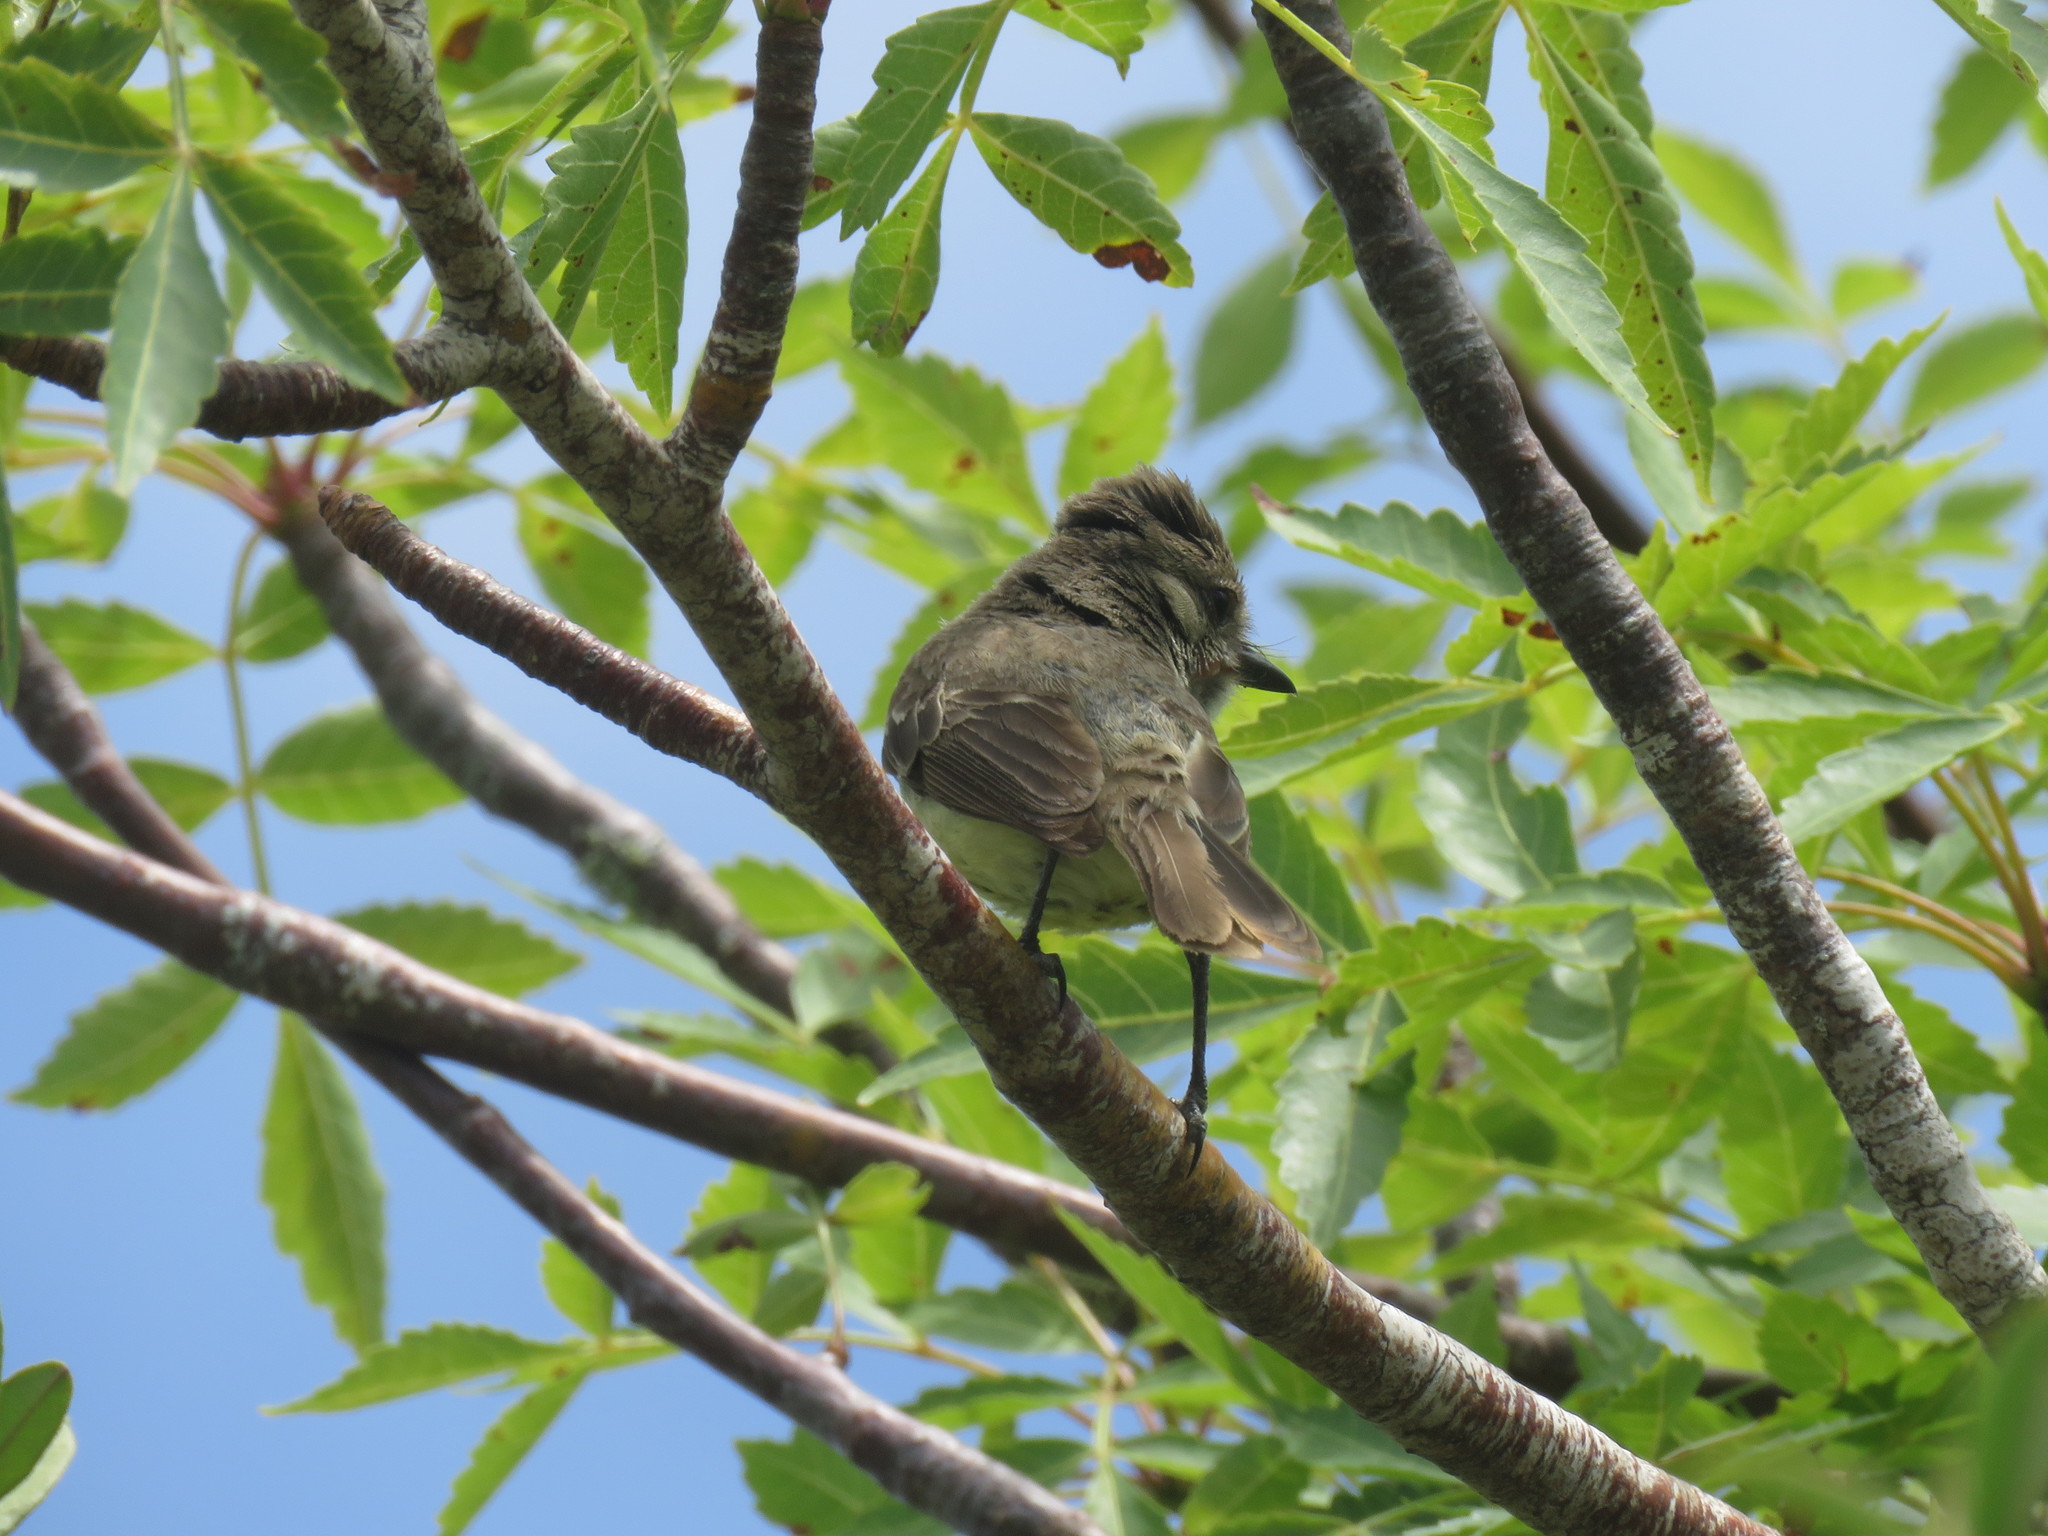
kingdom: Animalia
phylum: Chordata
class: Aves
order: Passeriformes
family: Tyrannidae
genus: Myiarchus
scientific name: Myiarchus magnirostris
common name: Galapagos flycatcher
